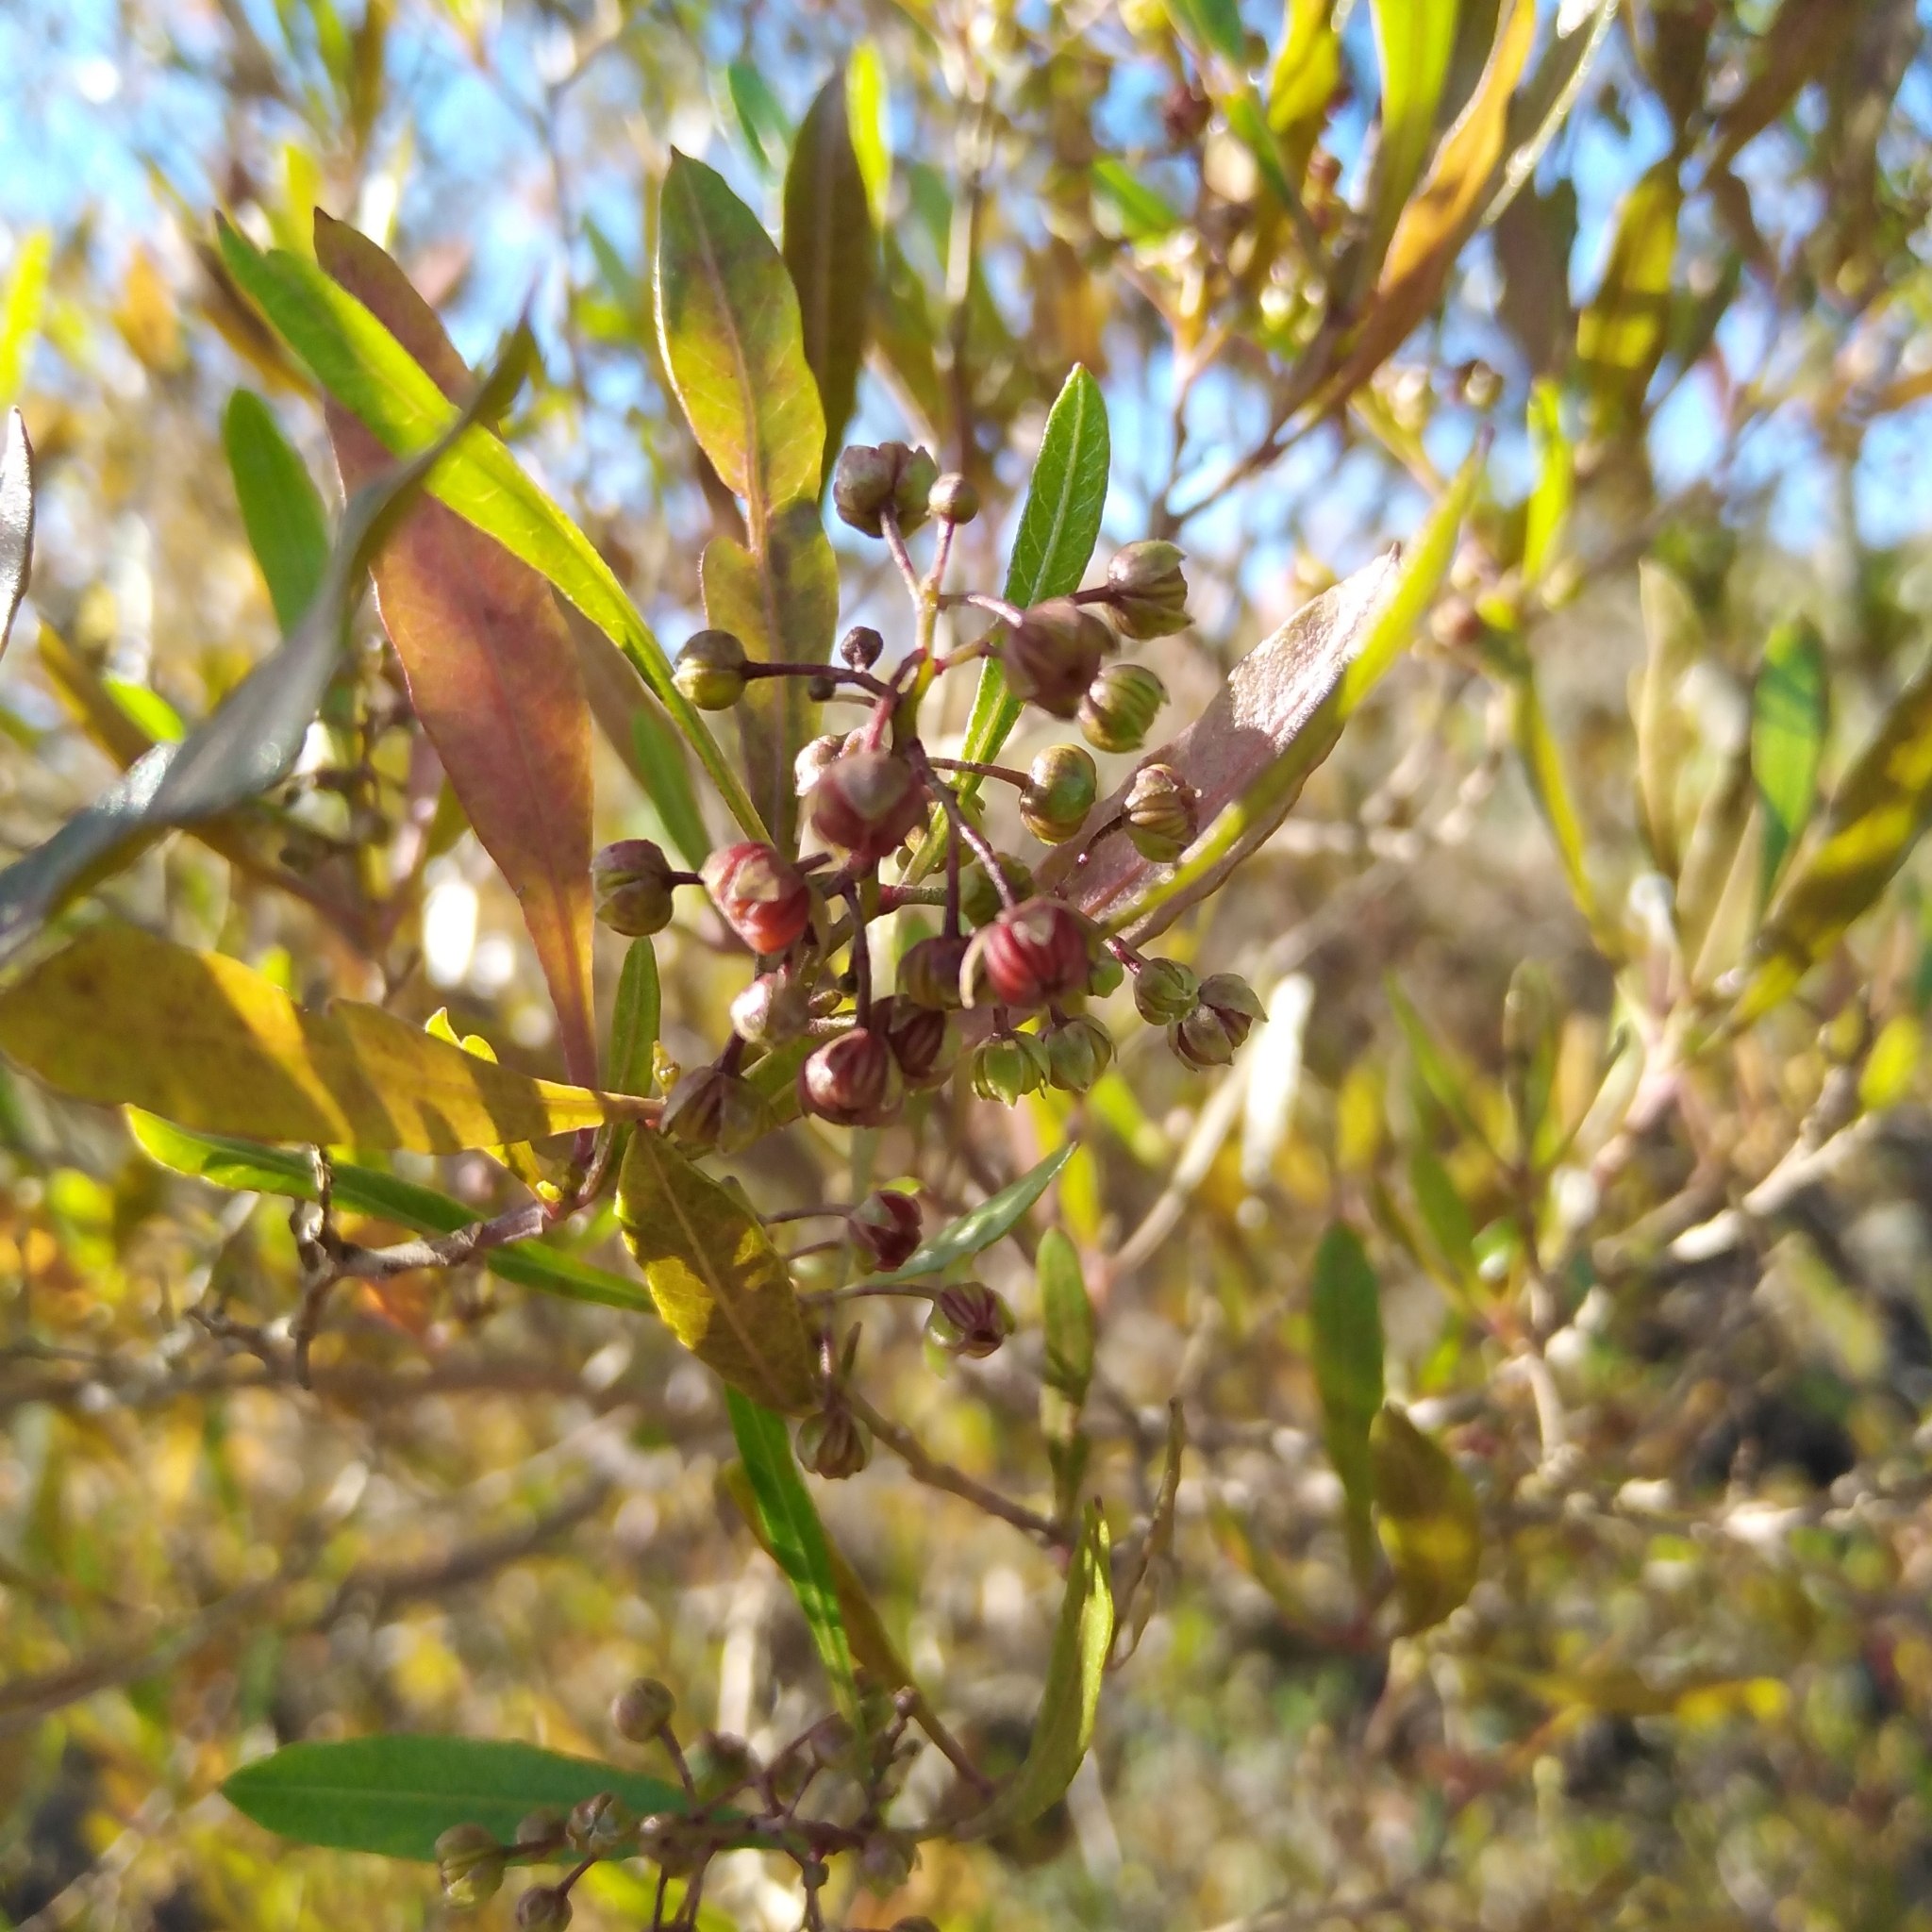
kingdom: Plantae
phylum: Tracheophyta
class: Magnoliopsida
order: Sapindales
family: Sapindaceae
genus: Dodonaea
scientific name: Dodonaea viscosa
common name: Hopbush
